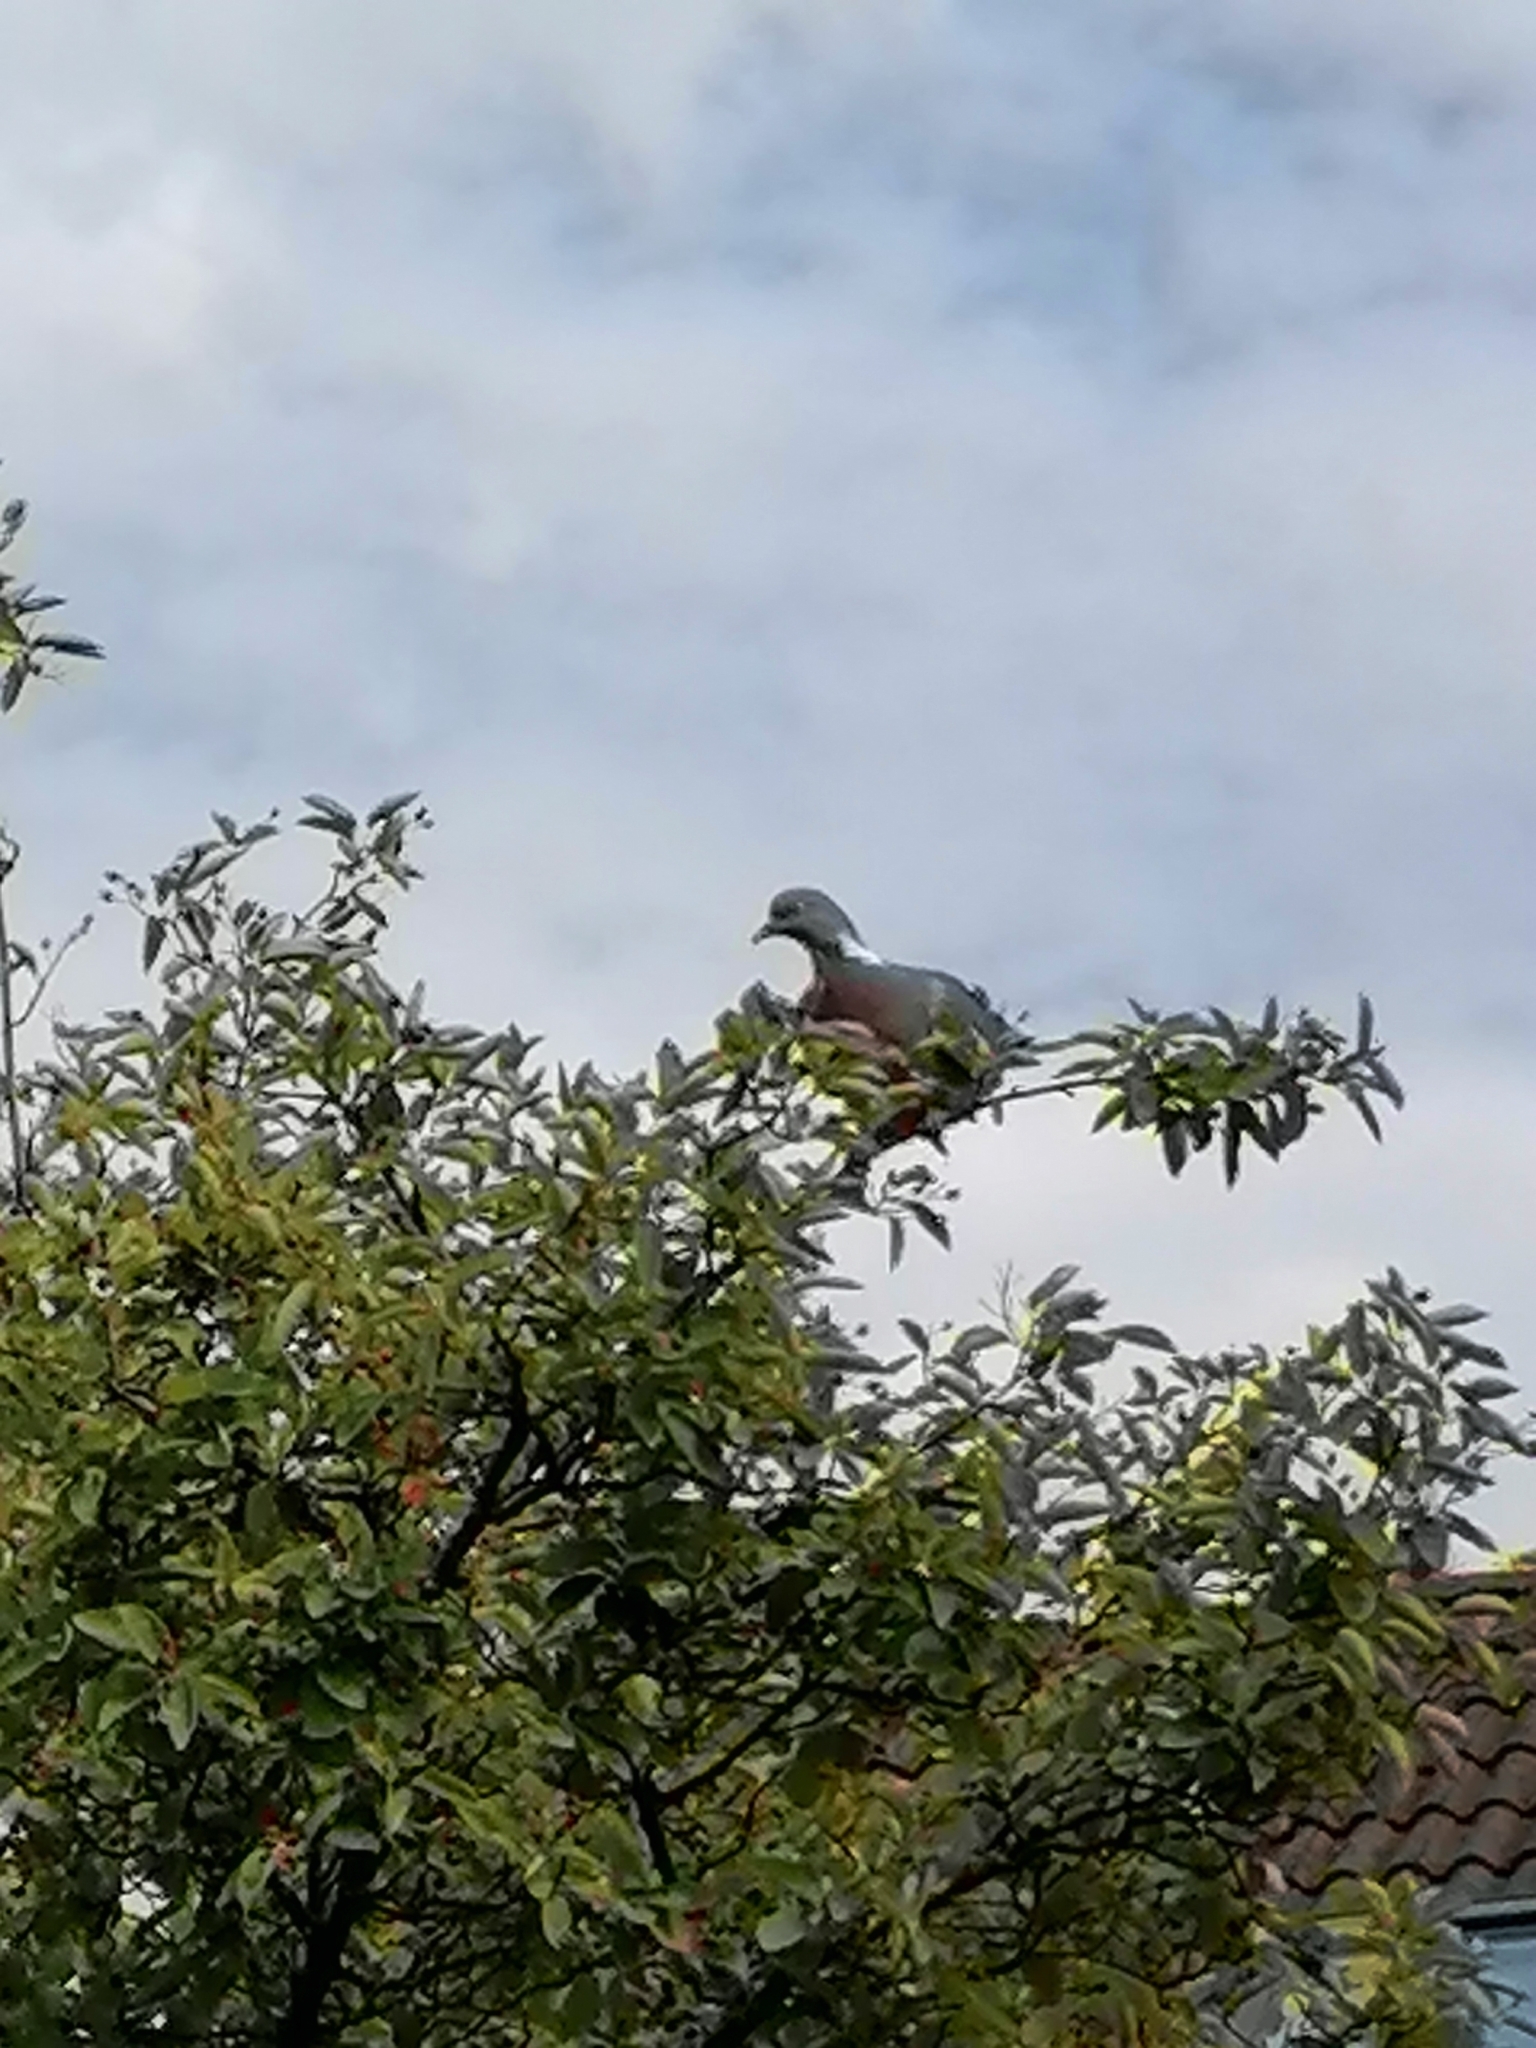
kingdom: Animalia
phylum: Chordata
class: Aves
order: Columbiformes
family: Columbidae
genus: Columba
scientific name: Columba palumbus
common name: Common wood pigeon
